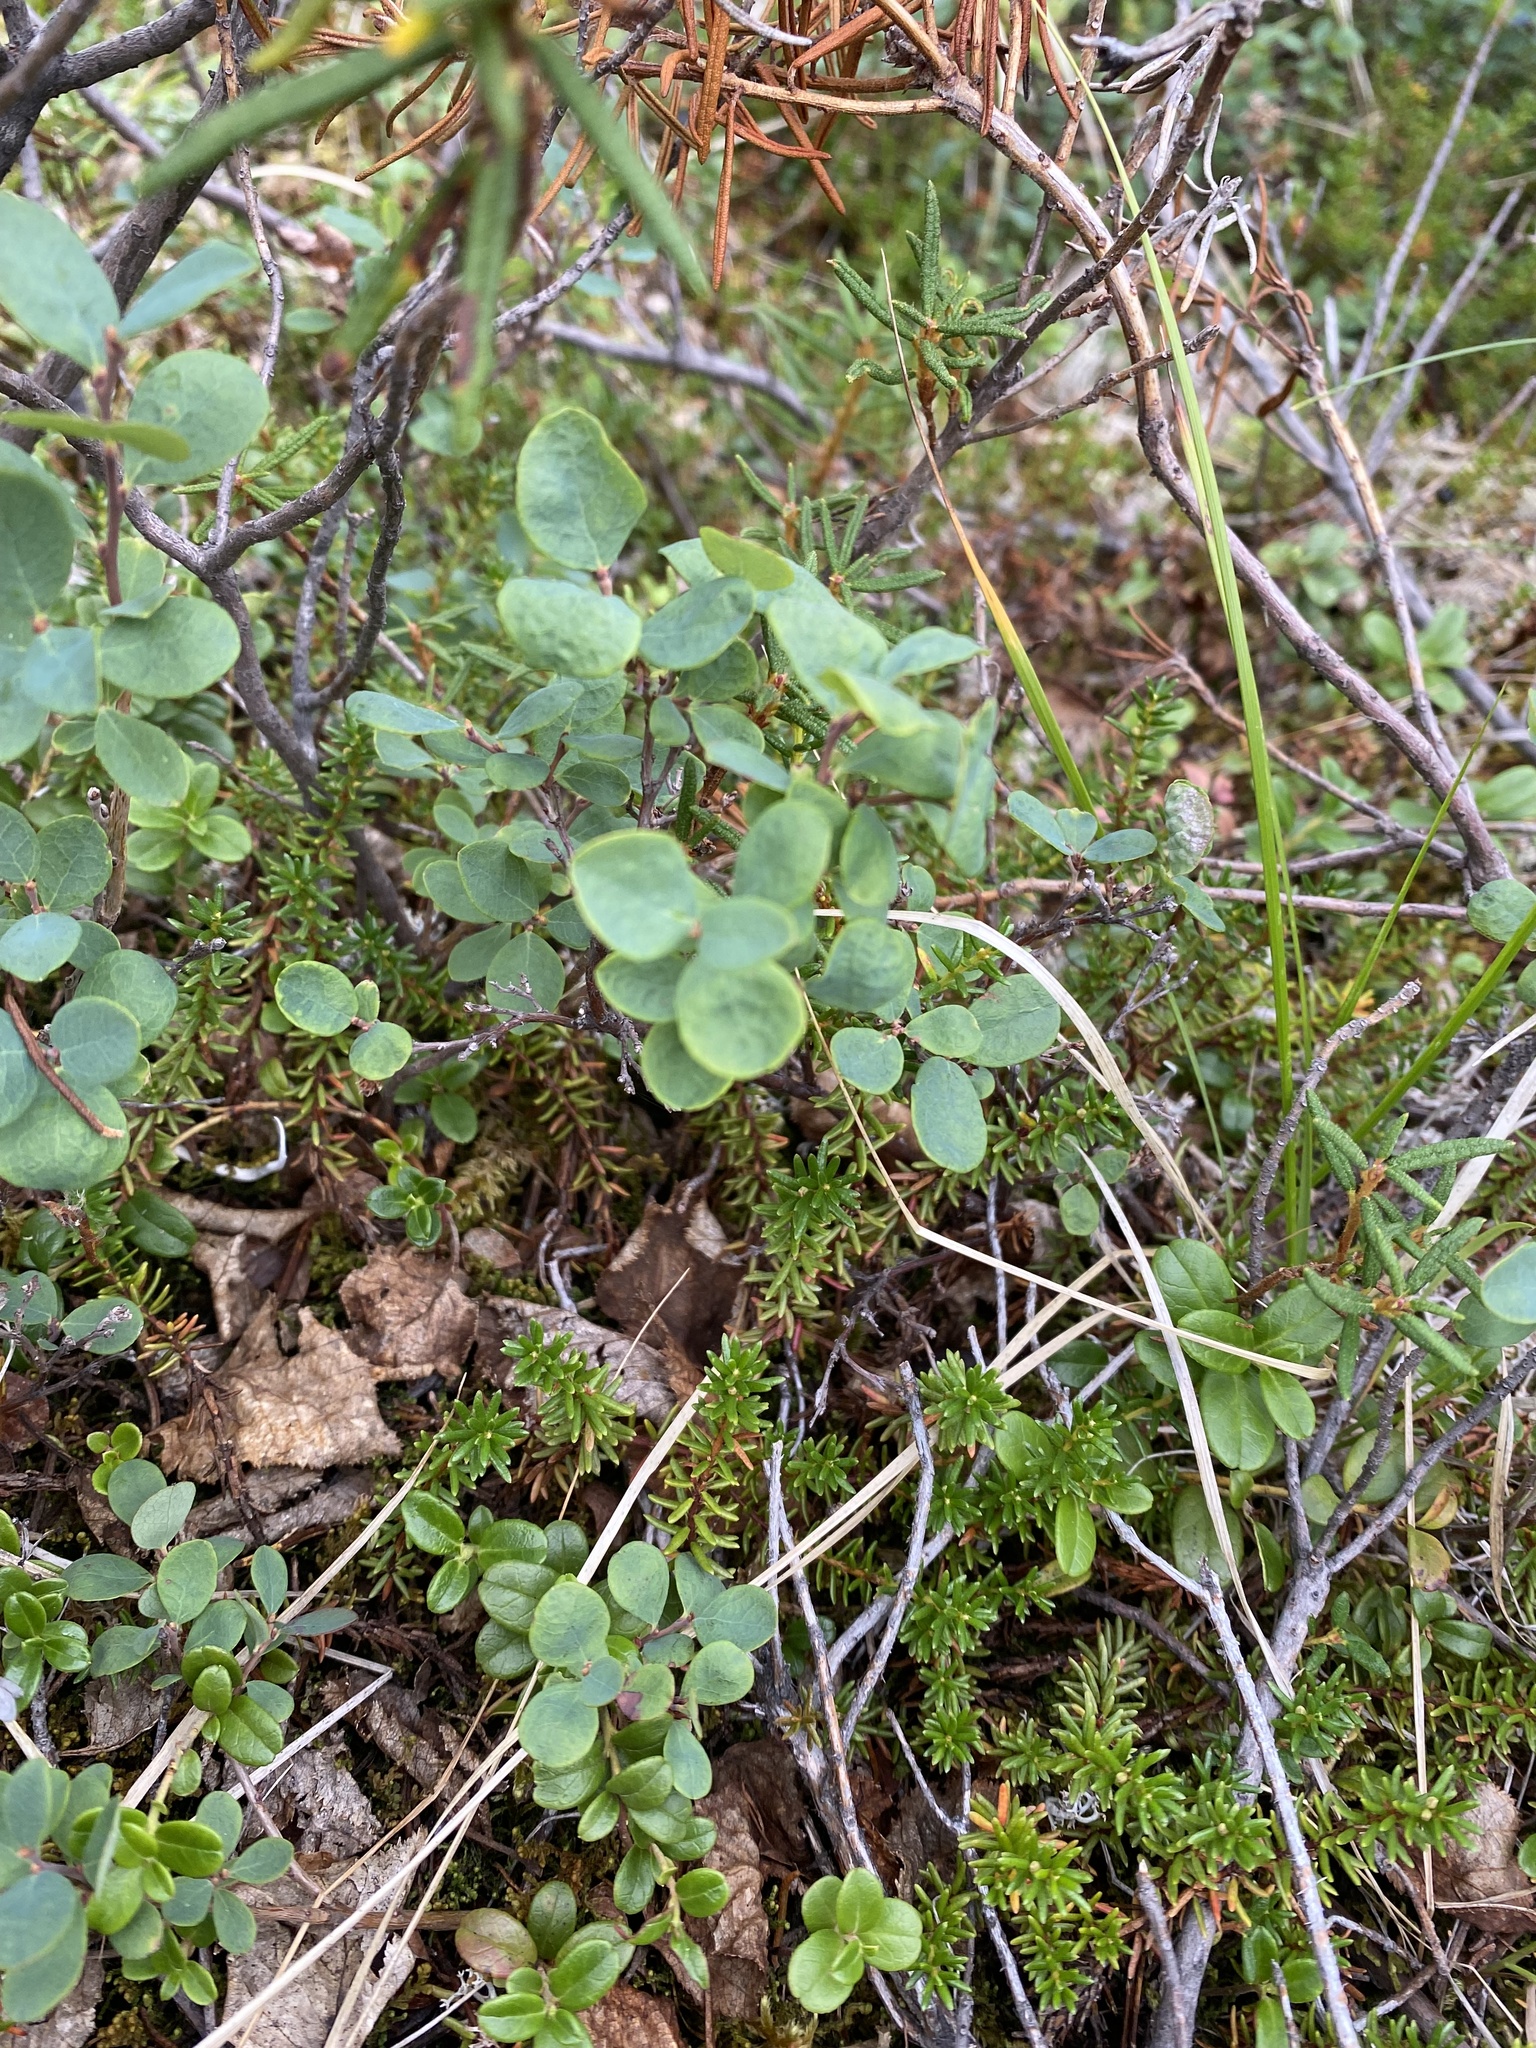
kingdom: Plantae
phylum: Tracheophyta
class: Magnoliopsida
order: Ericales
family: Ericaceae
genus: Vaccinium
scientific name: Vaccinium uliginosum
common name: Bog bilberry
